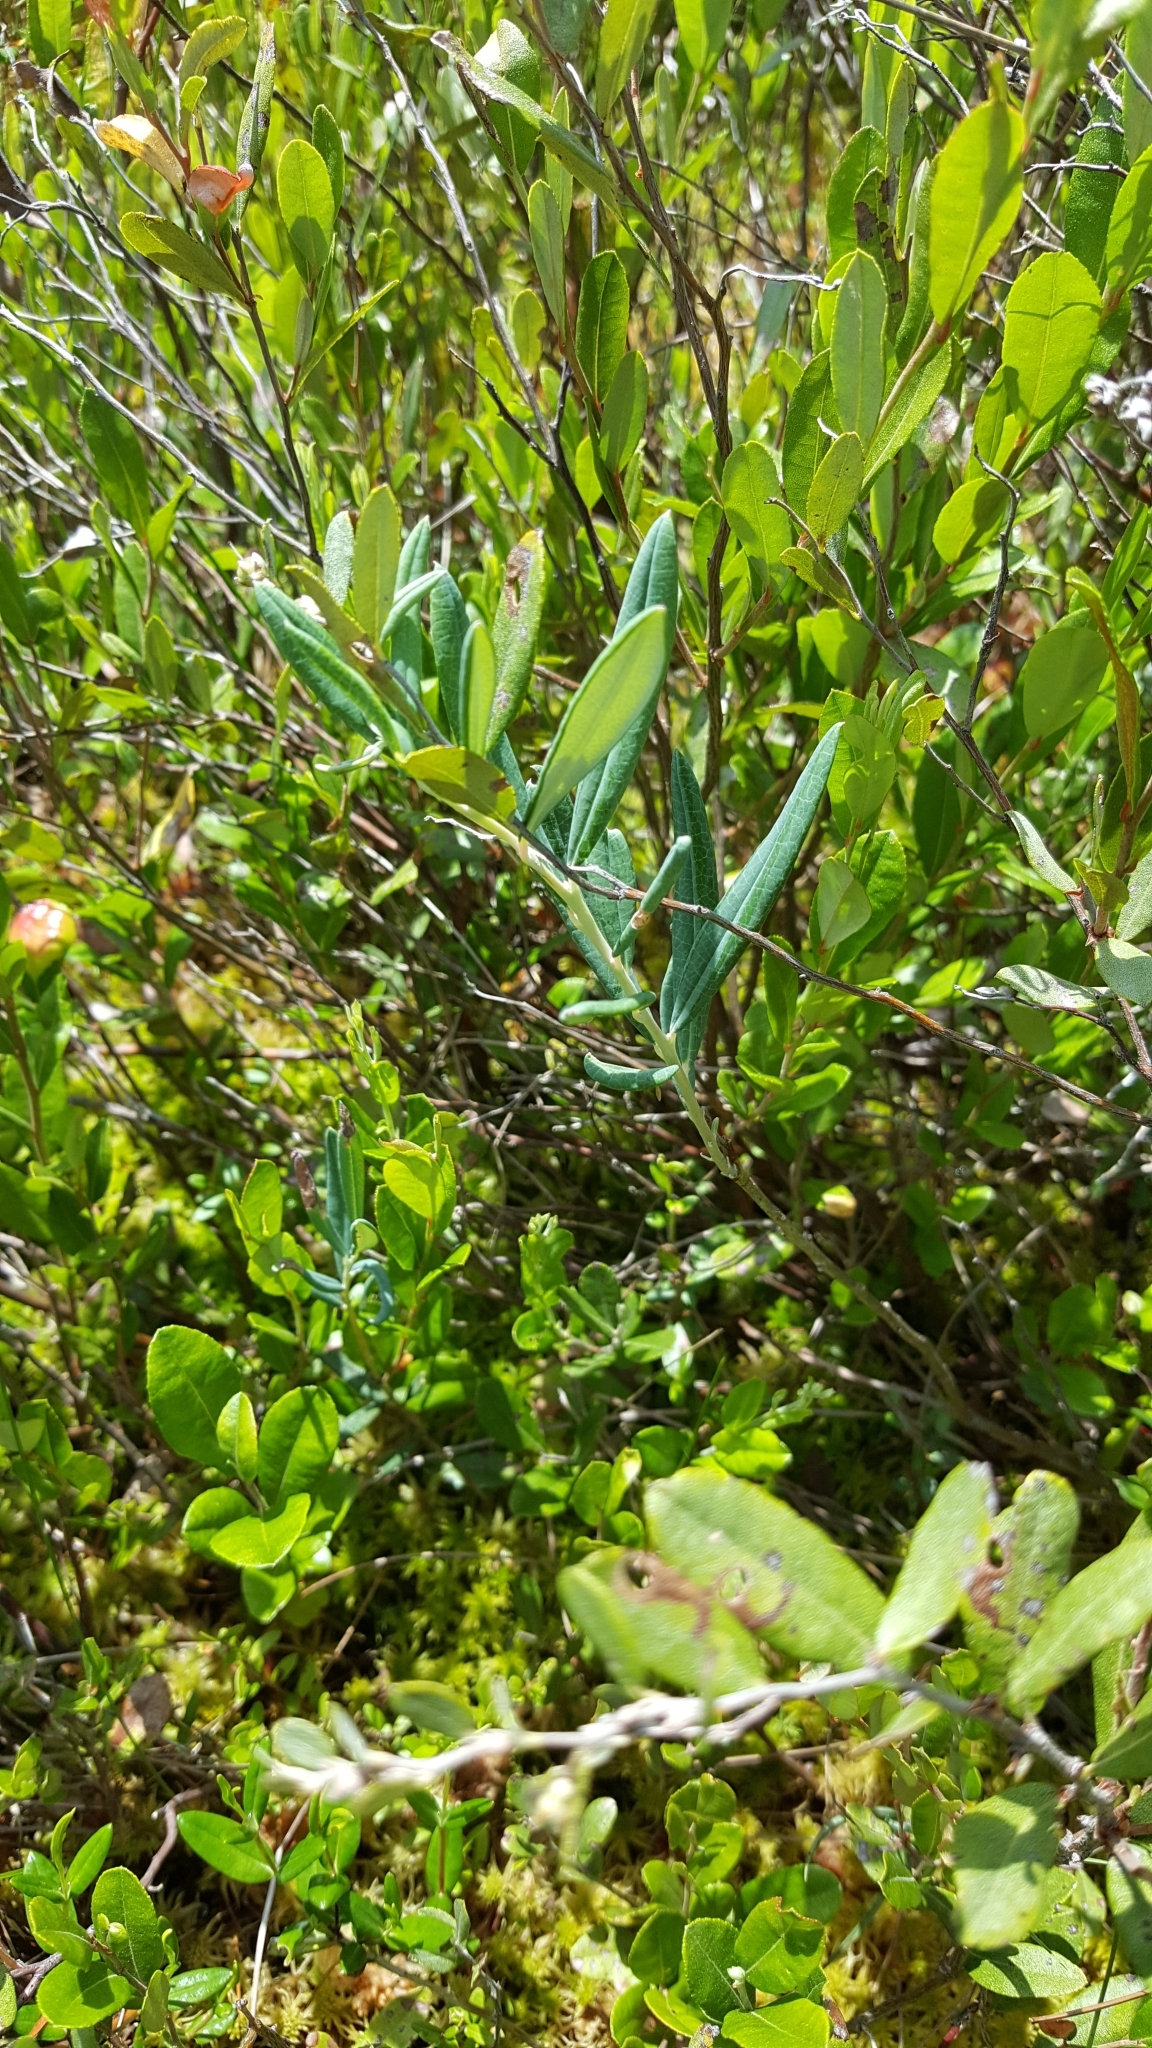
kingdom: Plantae
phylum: Tracheophyta
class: Magnoliopsida
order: Ericales
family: Ericaceae
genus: Andromeda
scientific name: Andromeda polifolia
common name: Bog-rosemary
